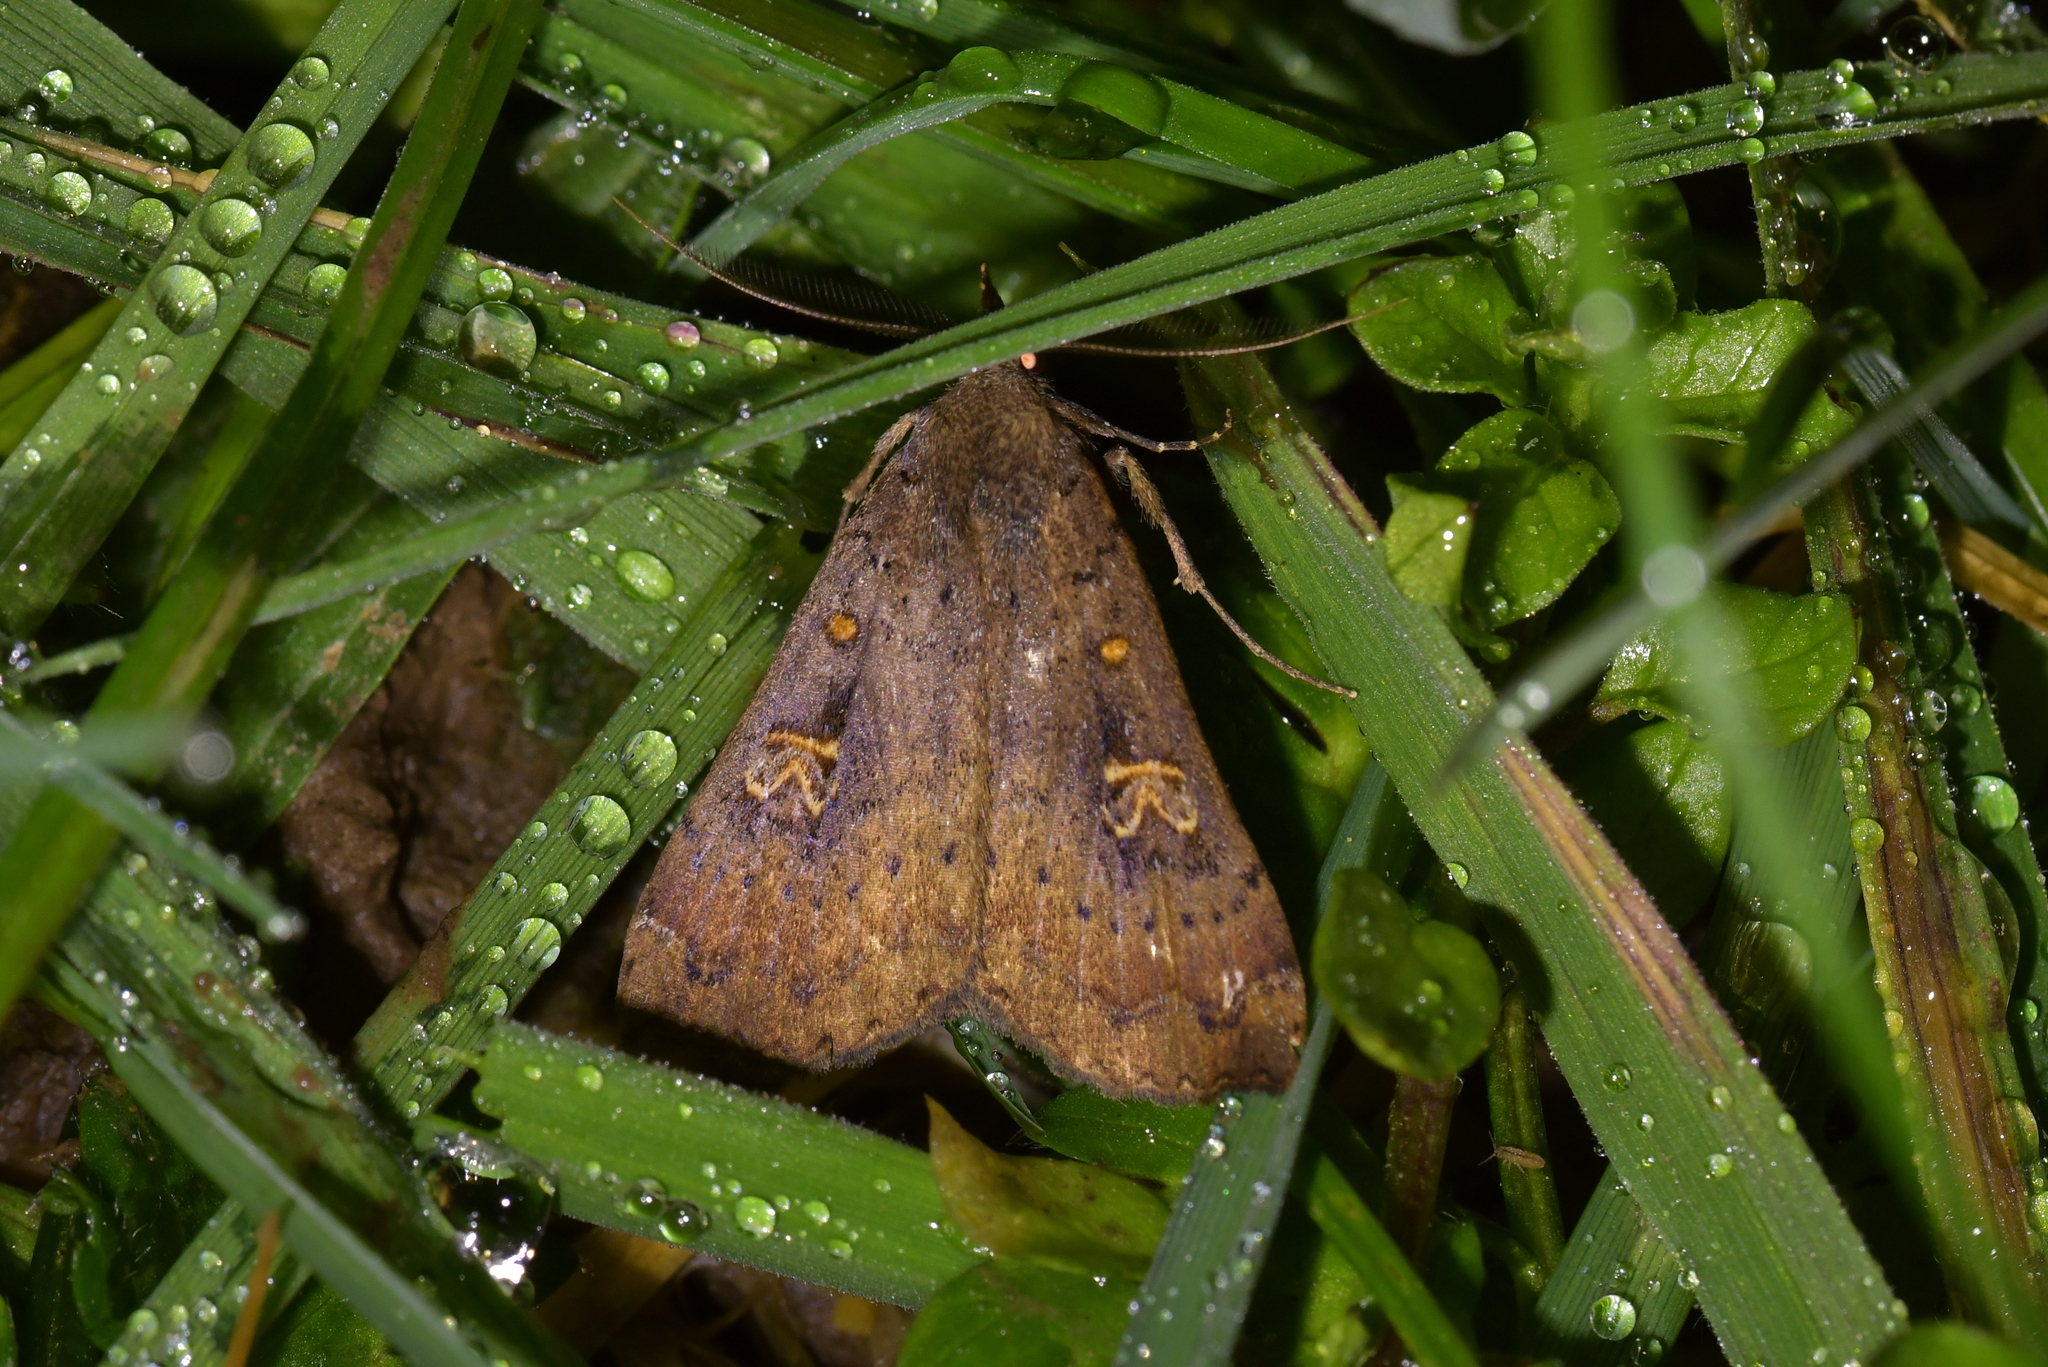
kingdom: Animalia
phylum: Arthropoda
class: Insecta
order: Lepidoptera
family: Erebidae
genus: Rhapsa
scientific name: Rhapsa scotosialis
